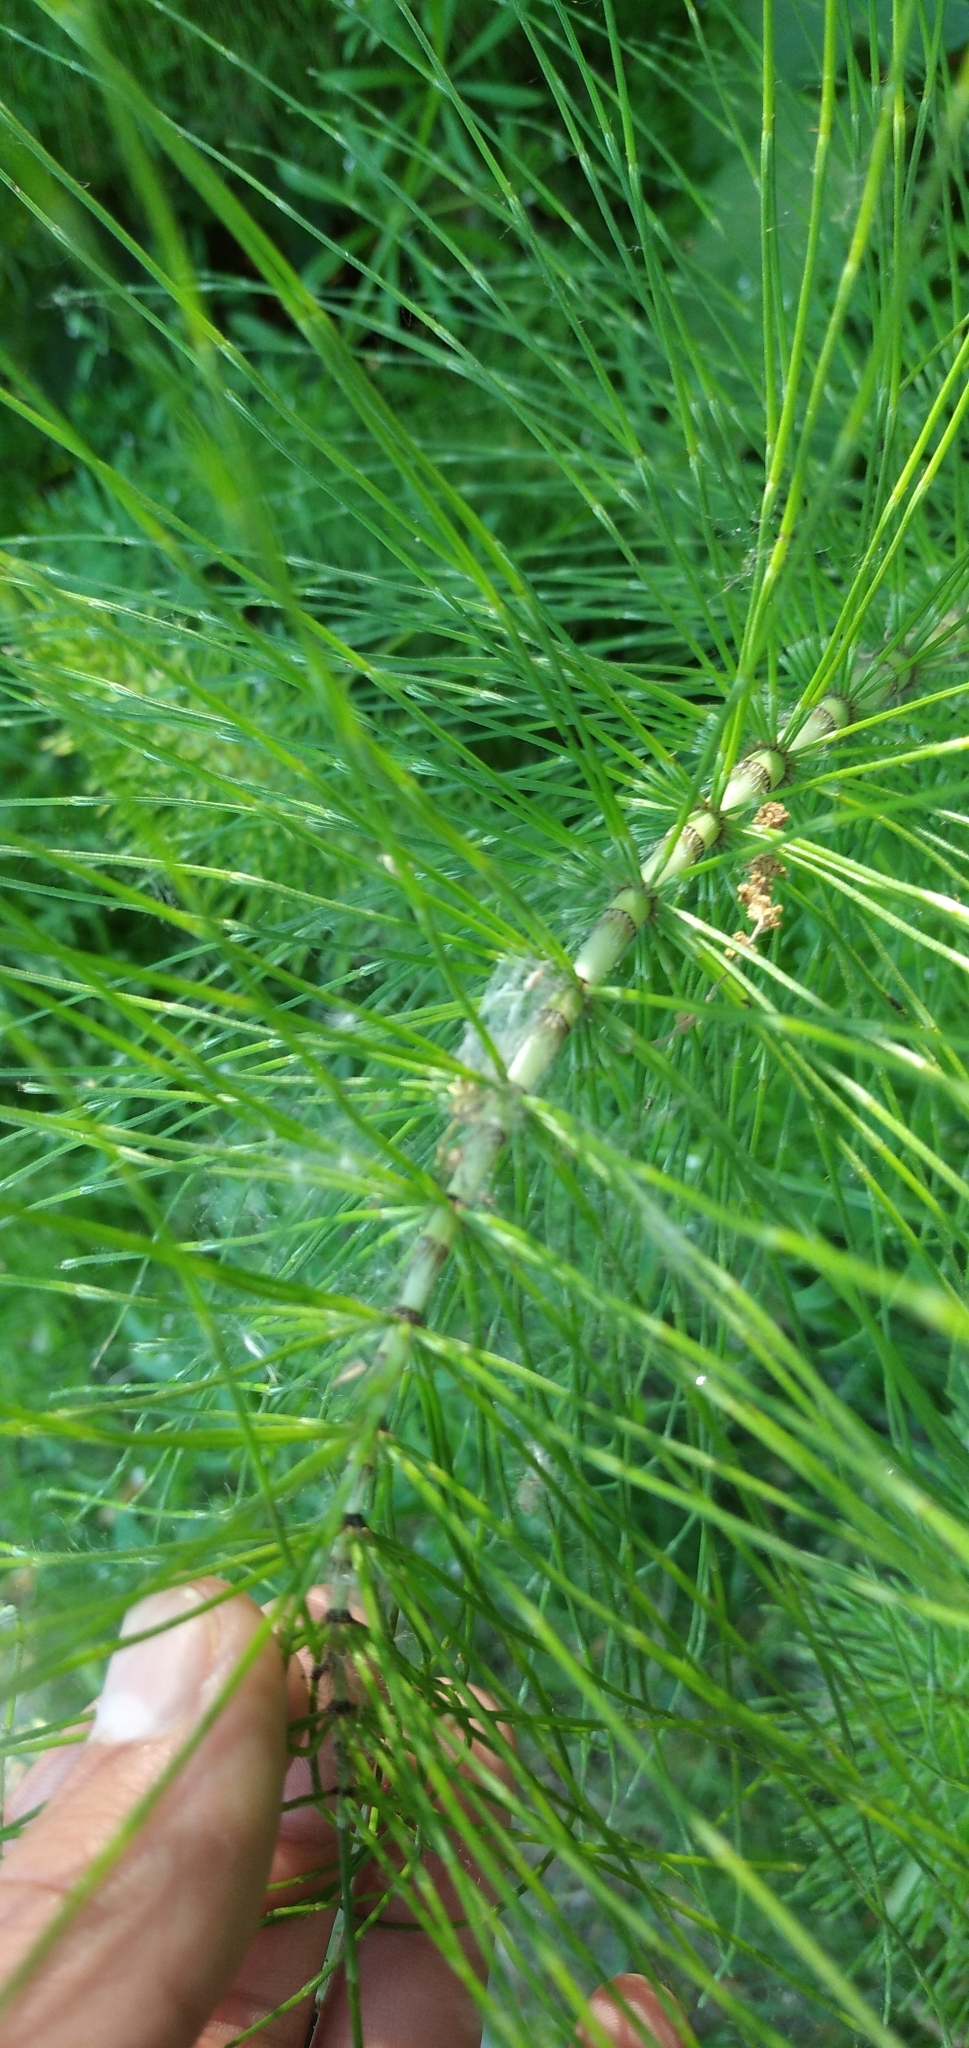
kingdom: Plantae
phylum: Tracheophyta
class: Polypodiopsida
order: Equisetales
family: Equisetaceae
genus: Equisetum
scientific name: Equisetum telmateia
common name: Great horsetail
